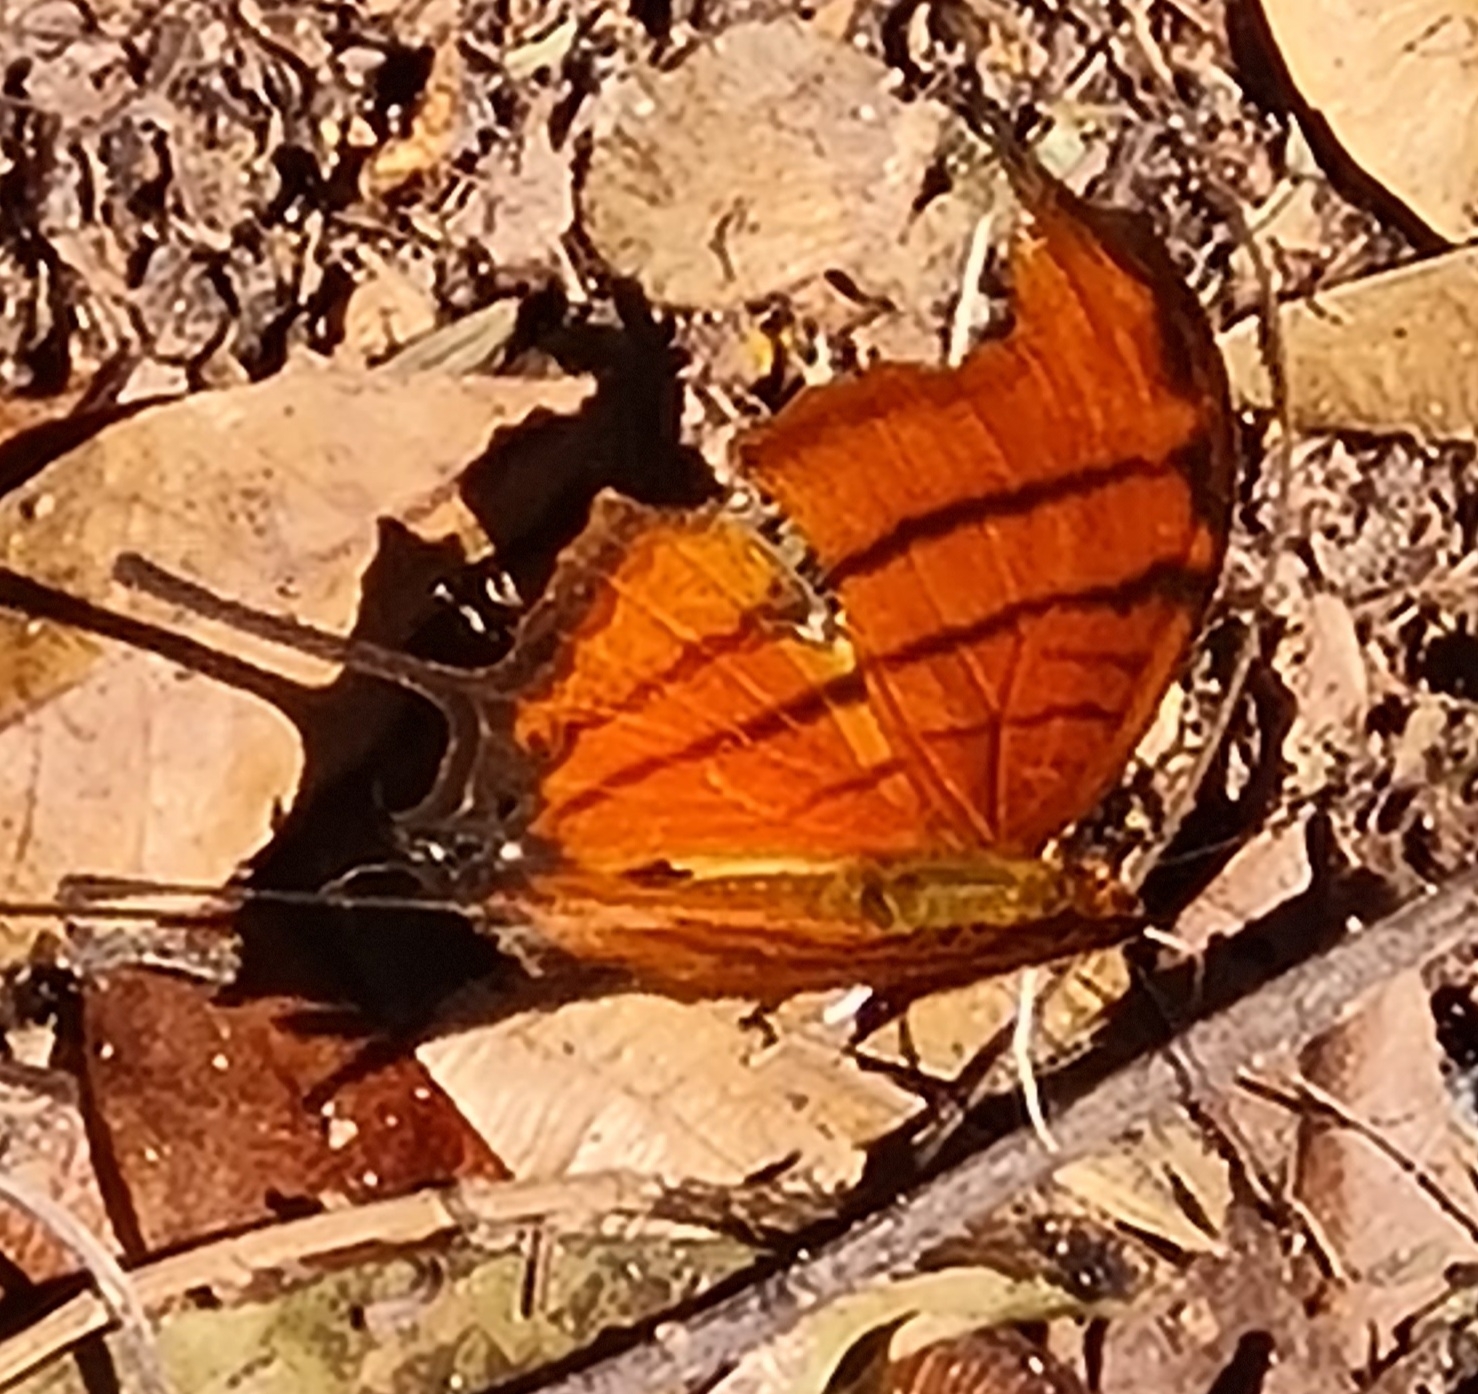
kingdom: Animalia
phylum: Arthropoda
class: Insecta
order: Lepidoptera
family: Nymphalidae
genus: Marpesia
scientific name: Marpesia petreus
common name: Red dagger wing
